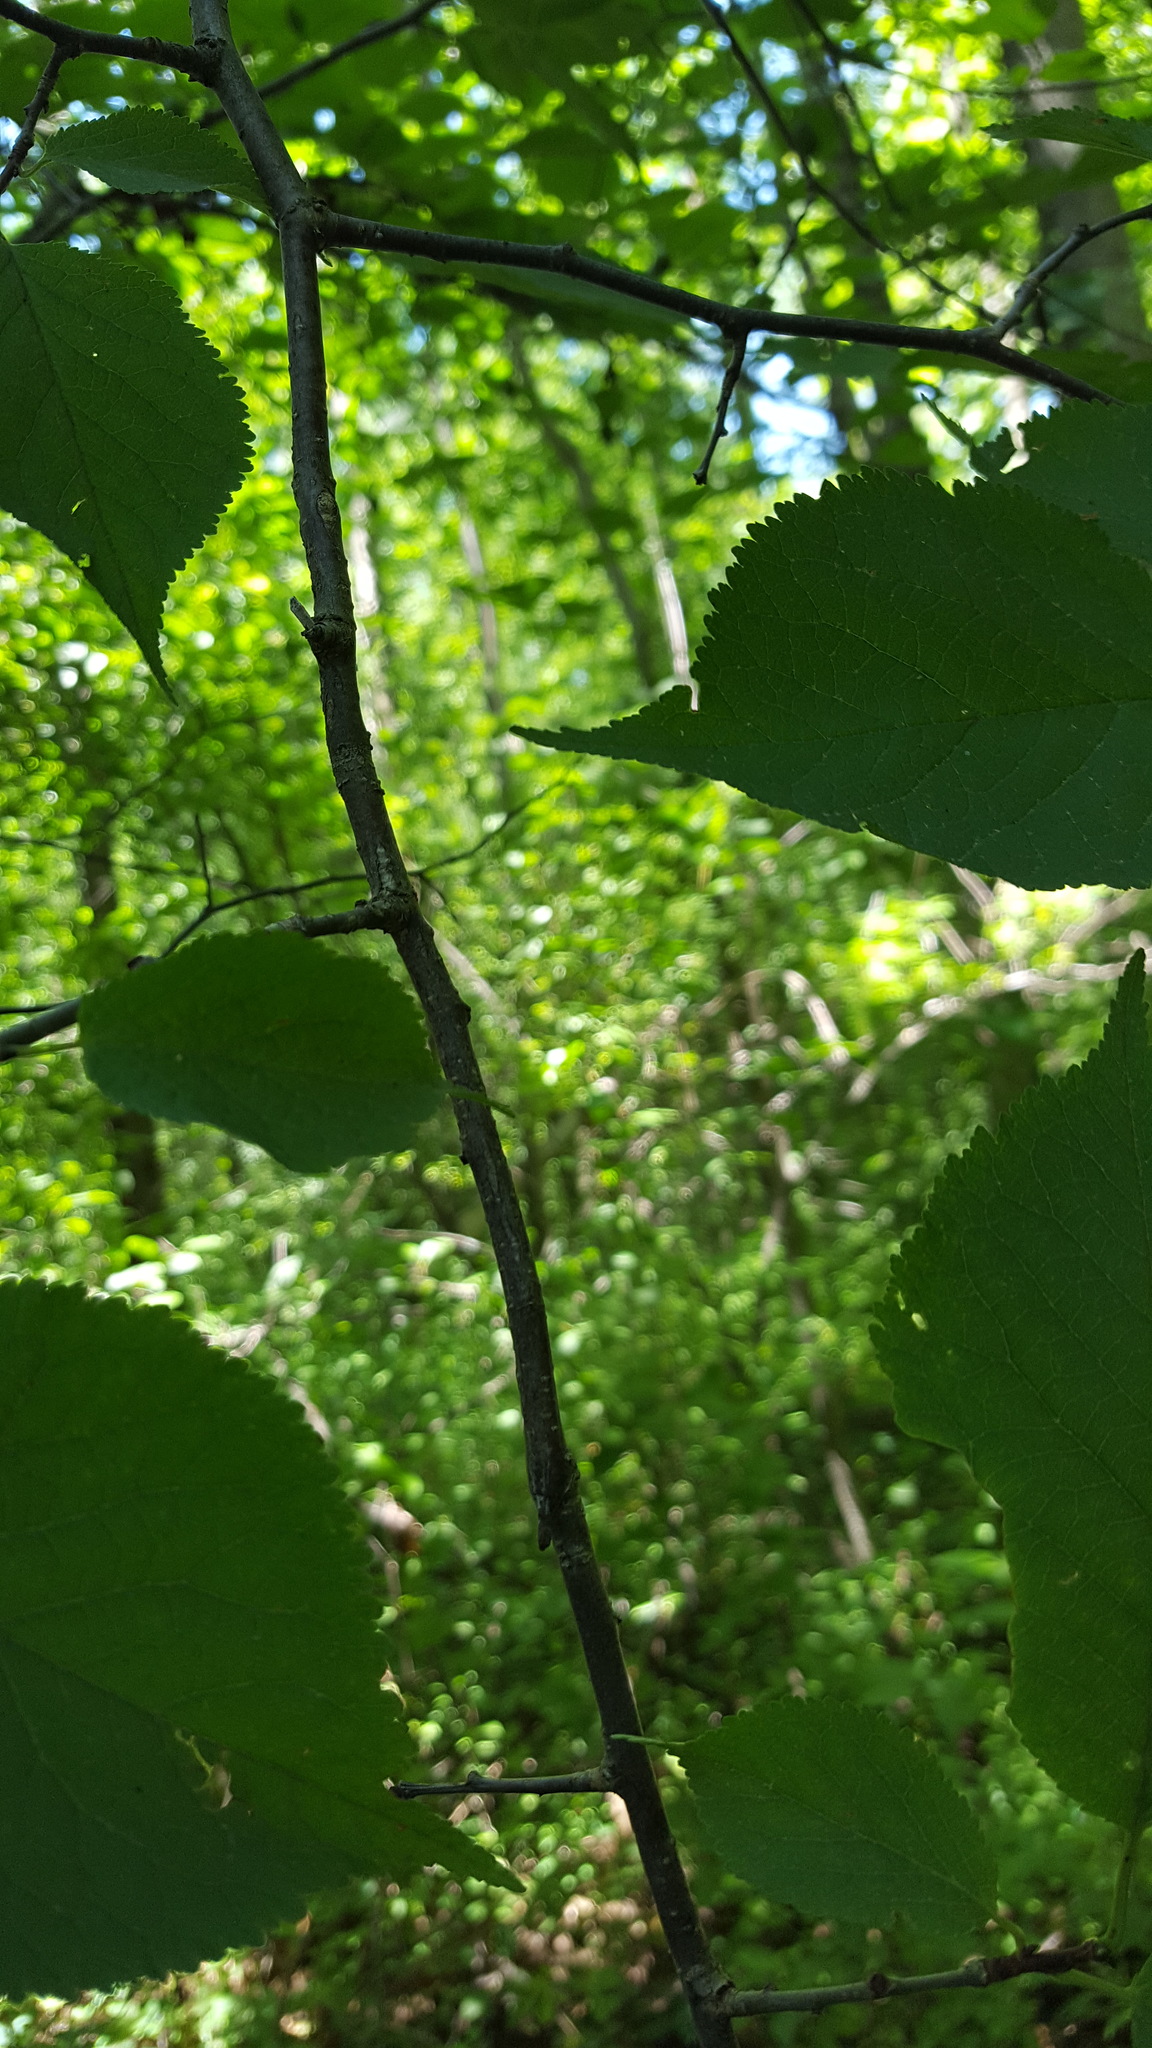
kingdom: Plantae
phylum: Tracheophyta
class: Magnoliopsida
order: Rosales
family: Rosaceae
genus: Prunus
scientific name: Prunus nigra
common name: Black plum
